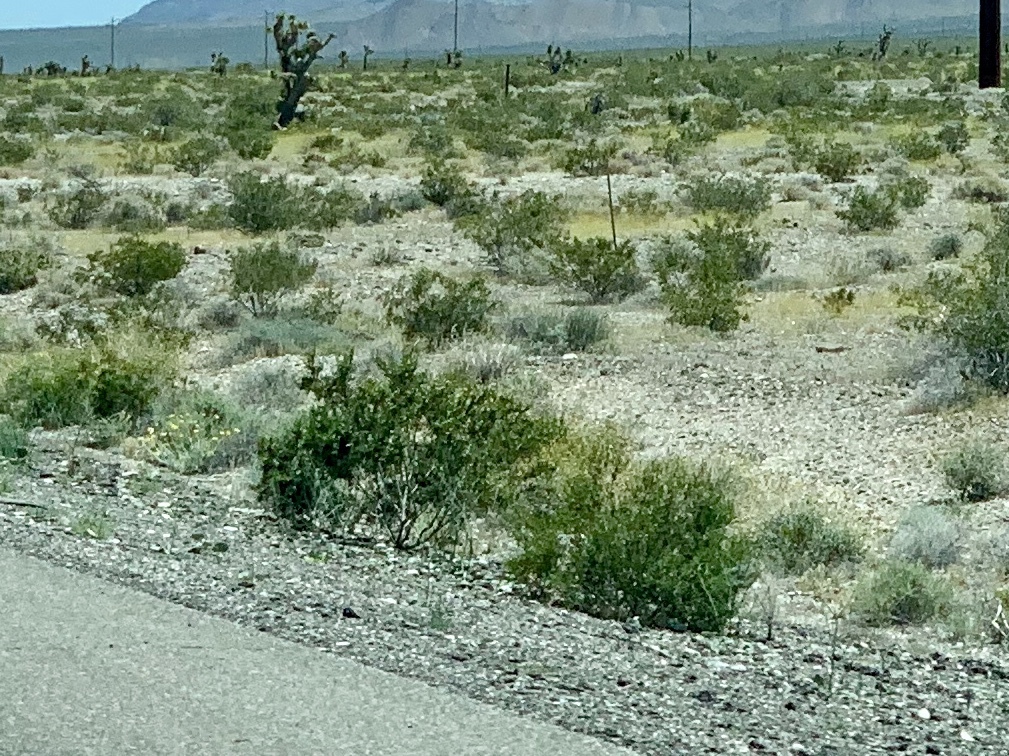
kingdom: Plantae
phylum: Tracheophyta
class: Magnoliopsida
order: Zygophyllales
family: Zygophyllaceae
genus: Larrea
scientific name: Larrea tridentata
